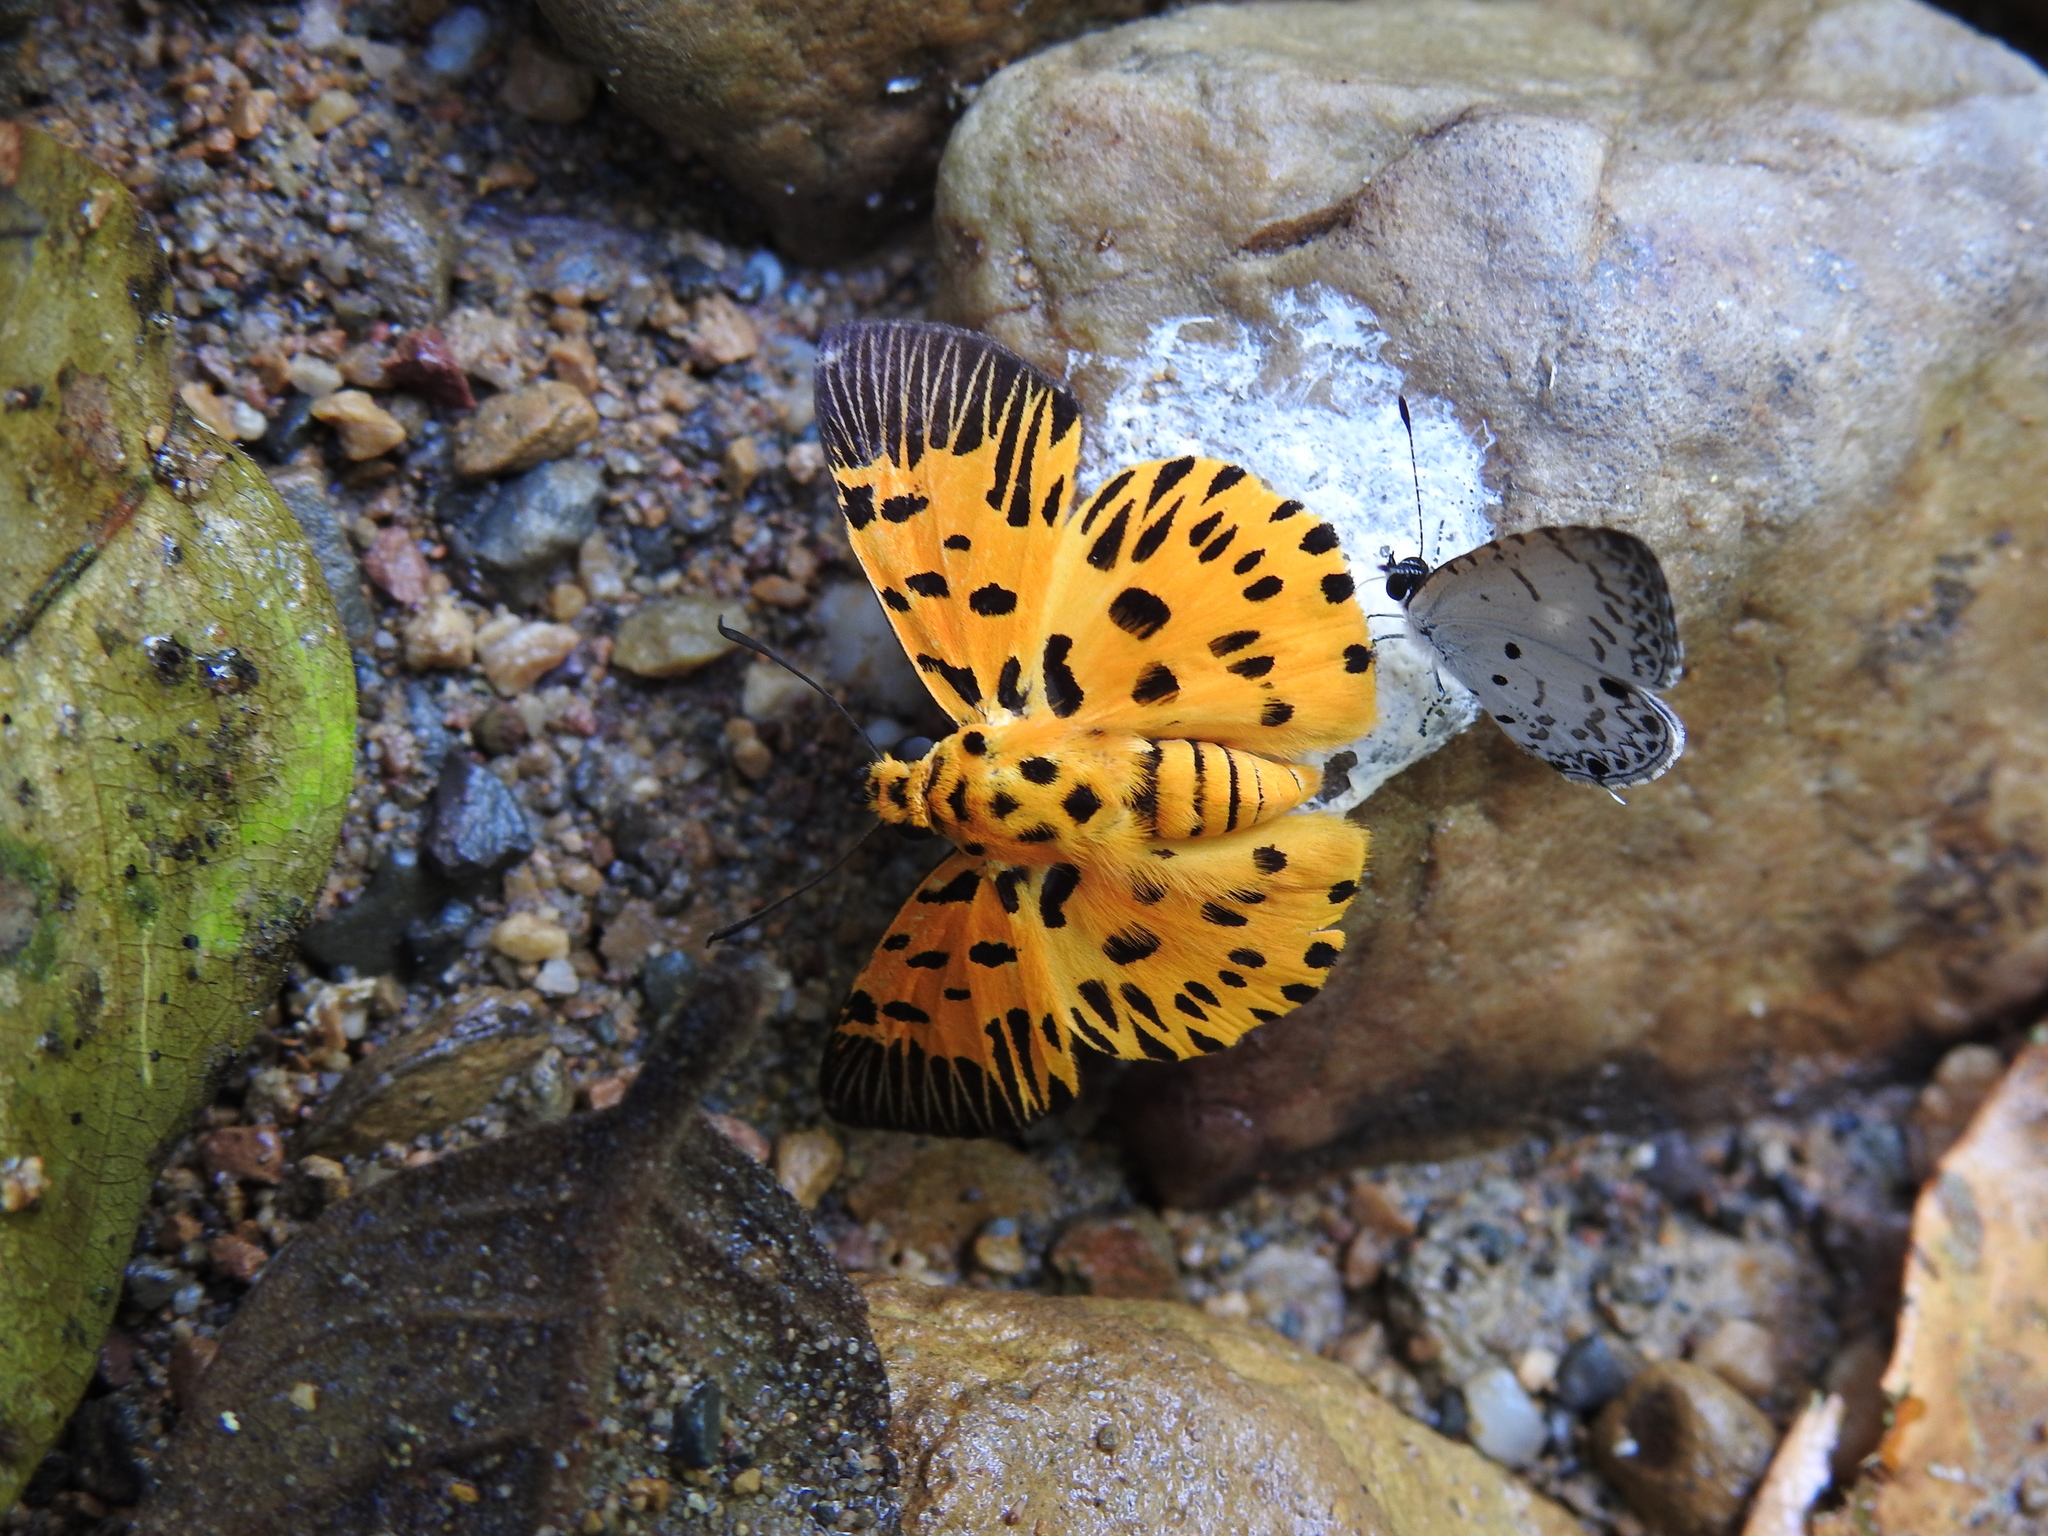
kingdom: Animalia
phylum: Arthropoda
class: Insecta
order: Lepidoptera
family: Hesperiidae
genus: Odina
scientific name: Odina decoratus
